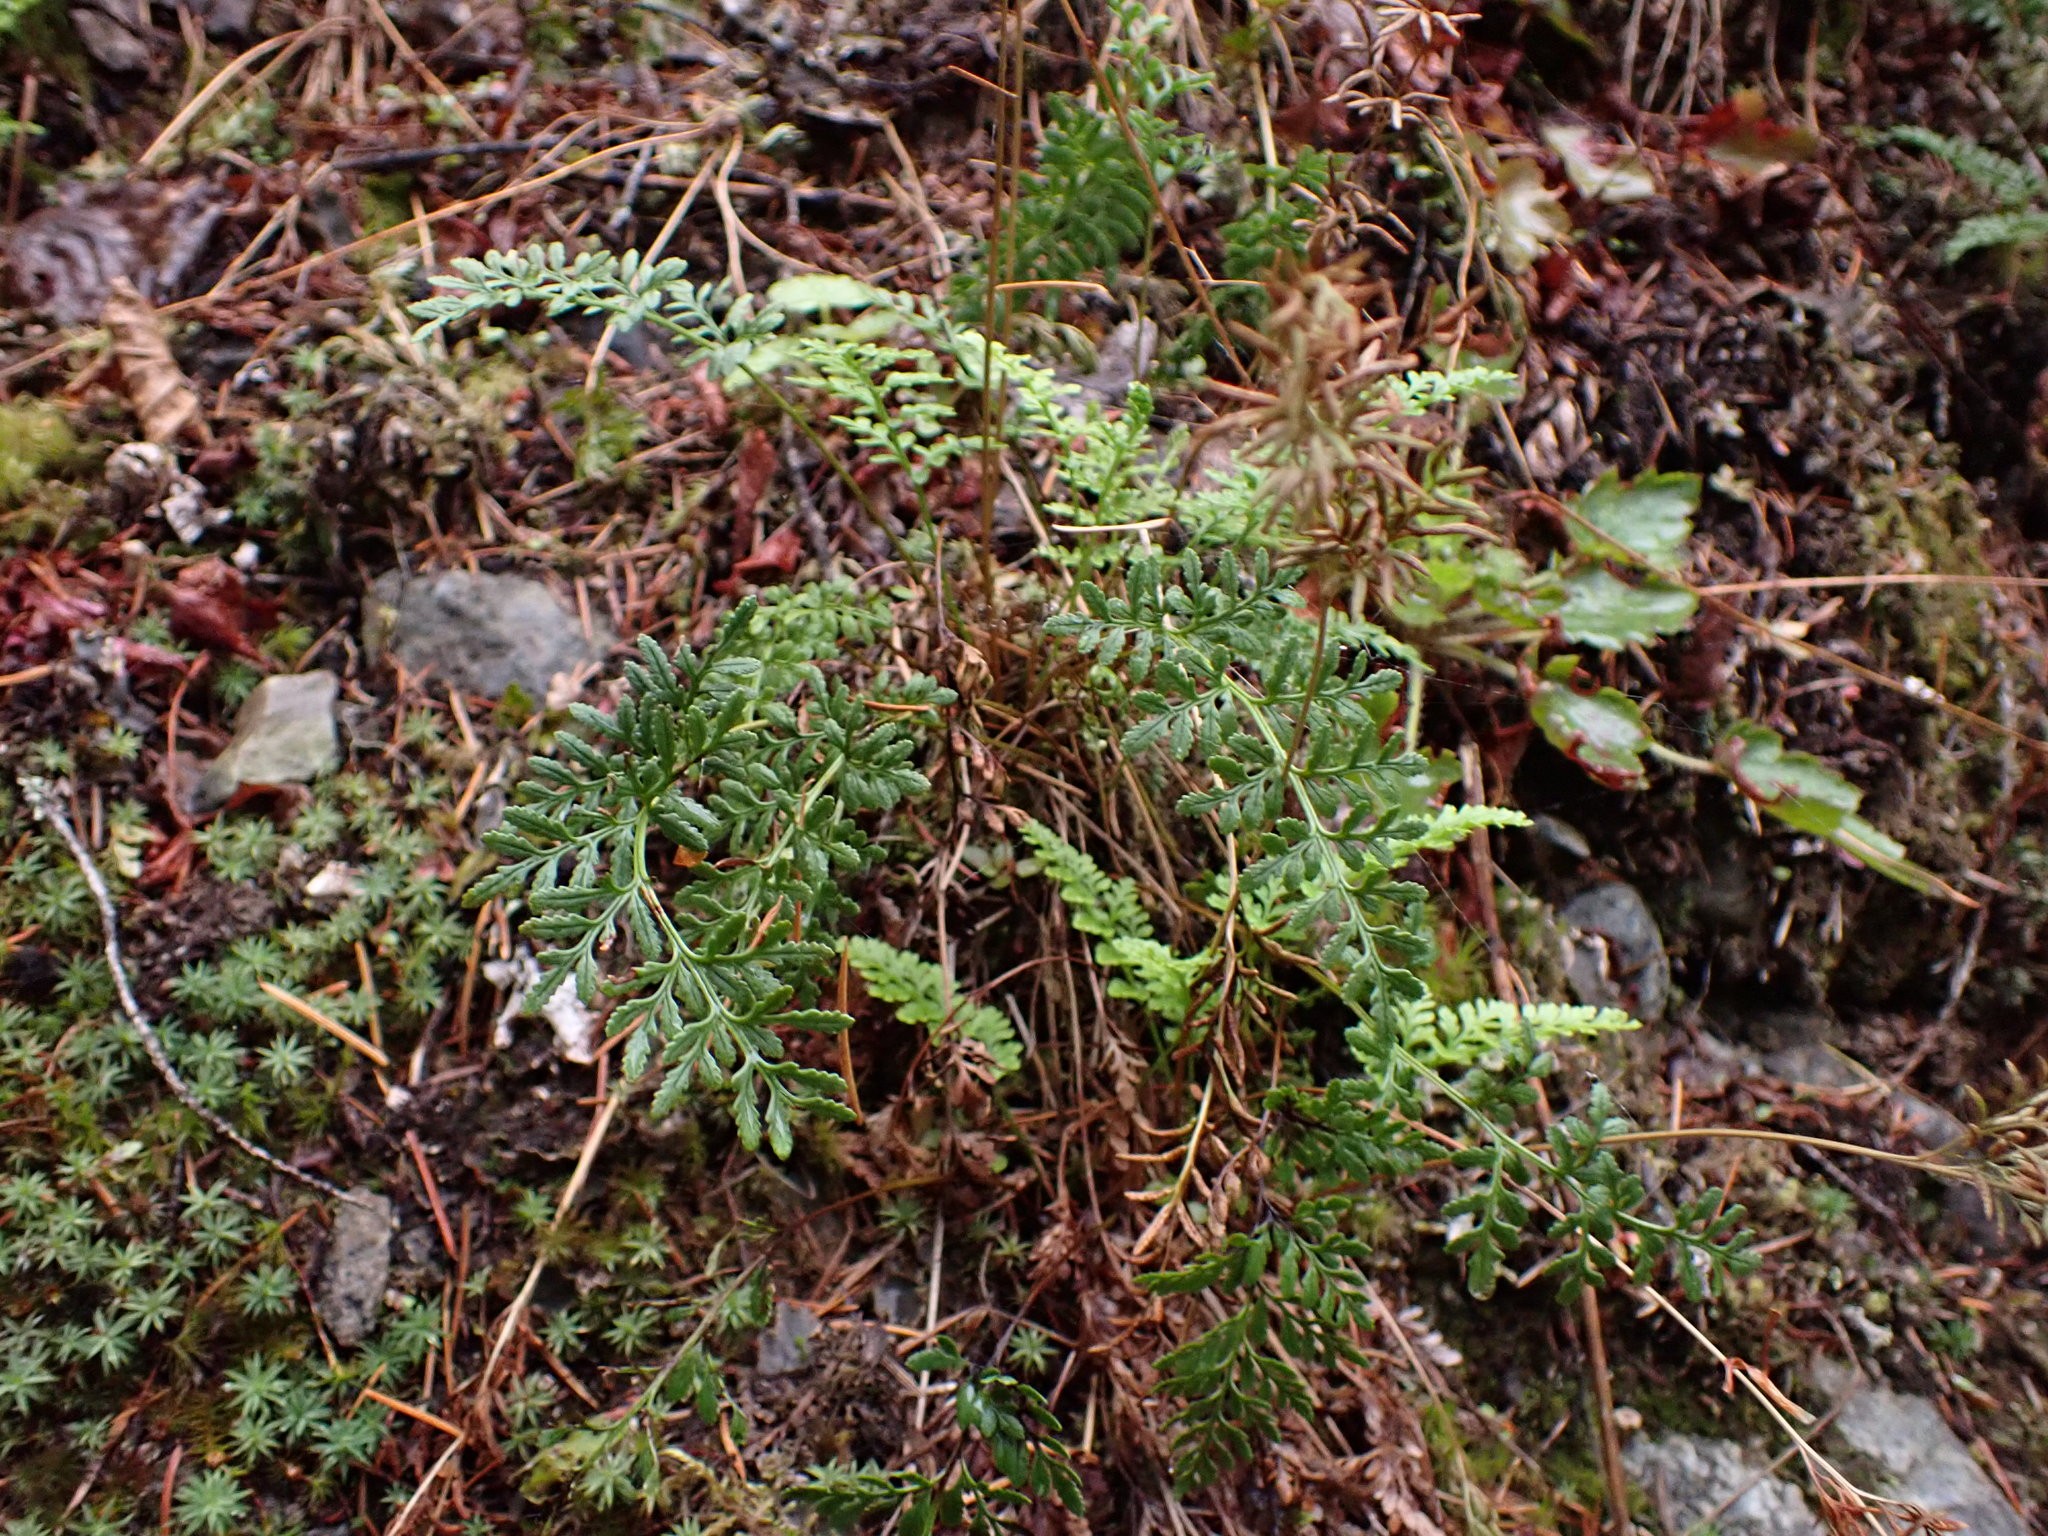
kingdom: Plantae
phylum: Tracheophyta
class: Polypodiopsida
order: Polypodiales
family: Pteridaceae
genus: Cryptogramma
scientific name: Cryptogramma acrostichoides
